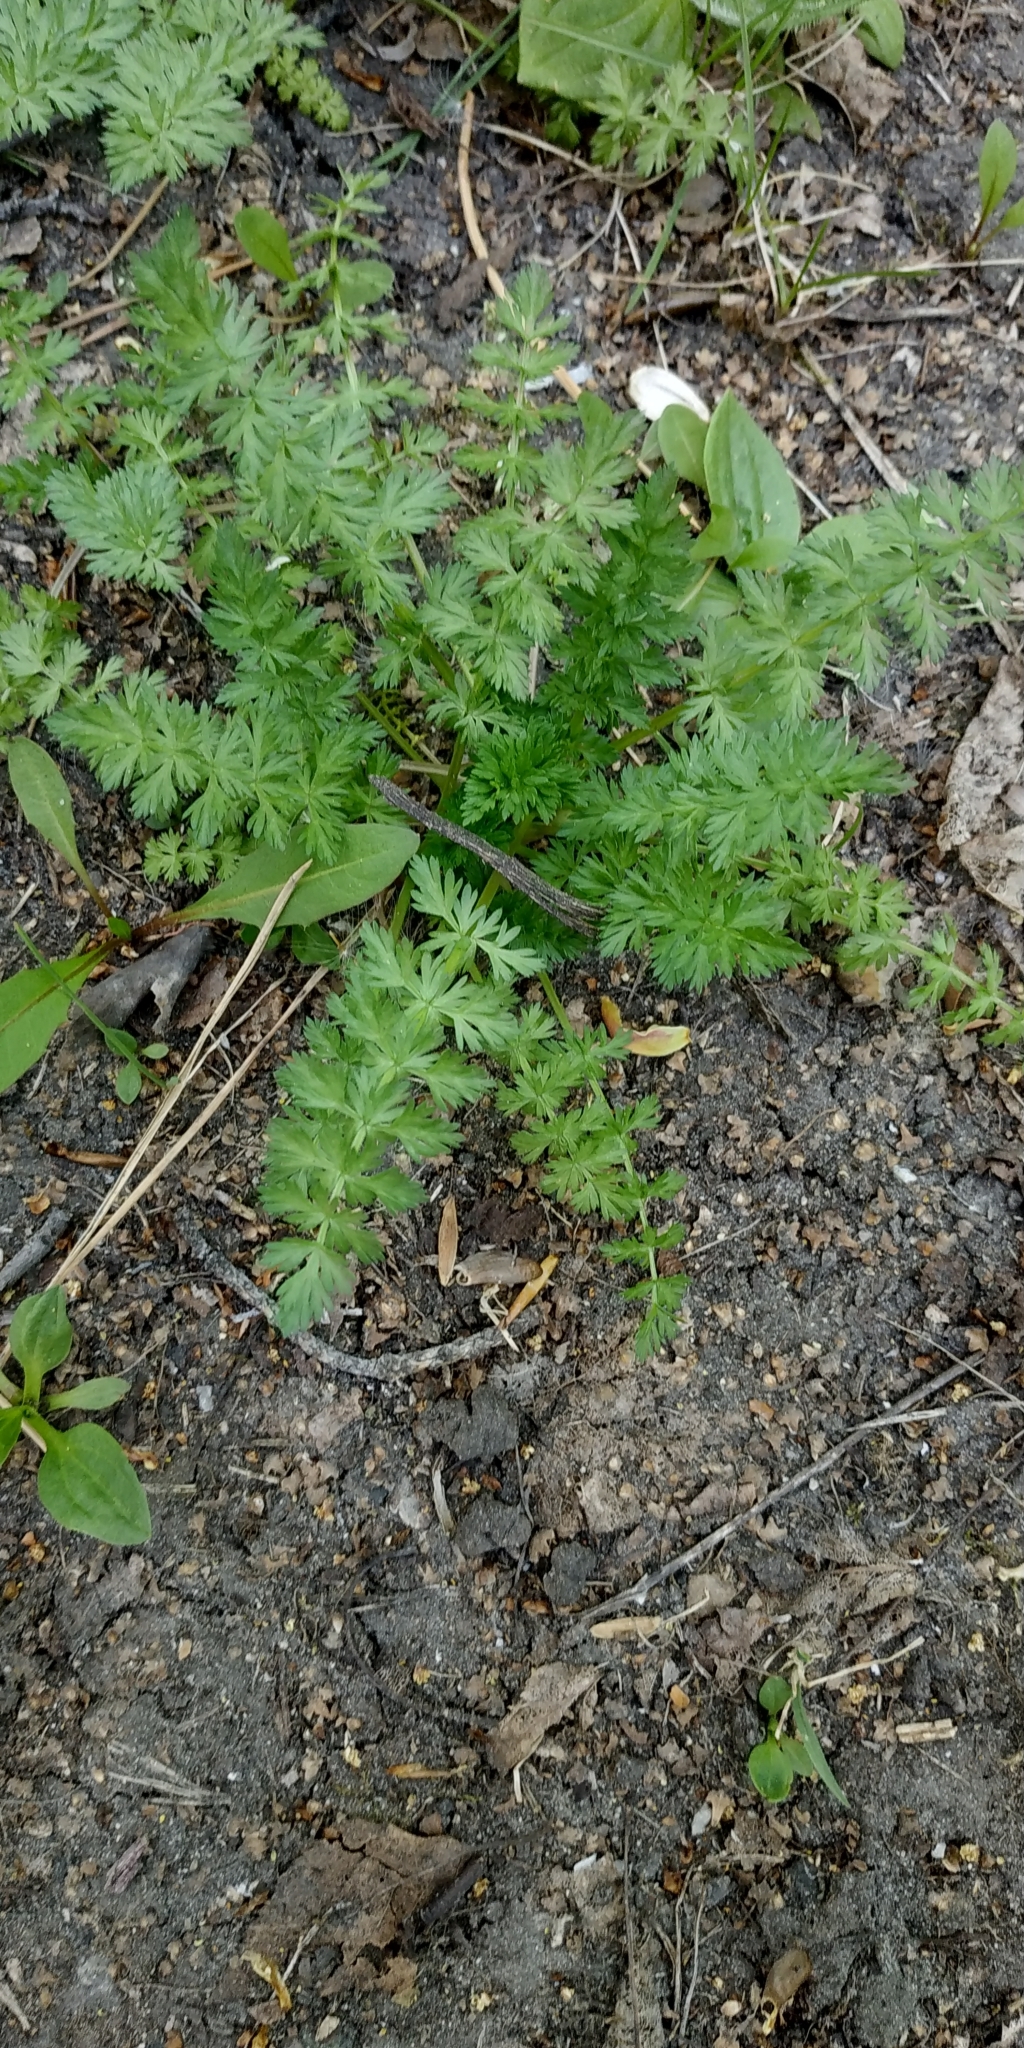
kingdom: Plantae
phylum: Tracheophyta
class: Magnoliopsida
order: Apiales
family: Apiaceae
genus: Carum
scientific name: Carum carvi
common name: Caraway
